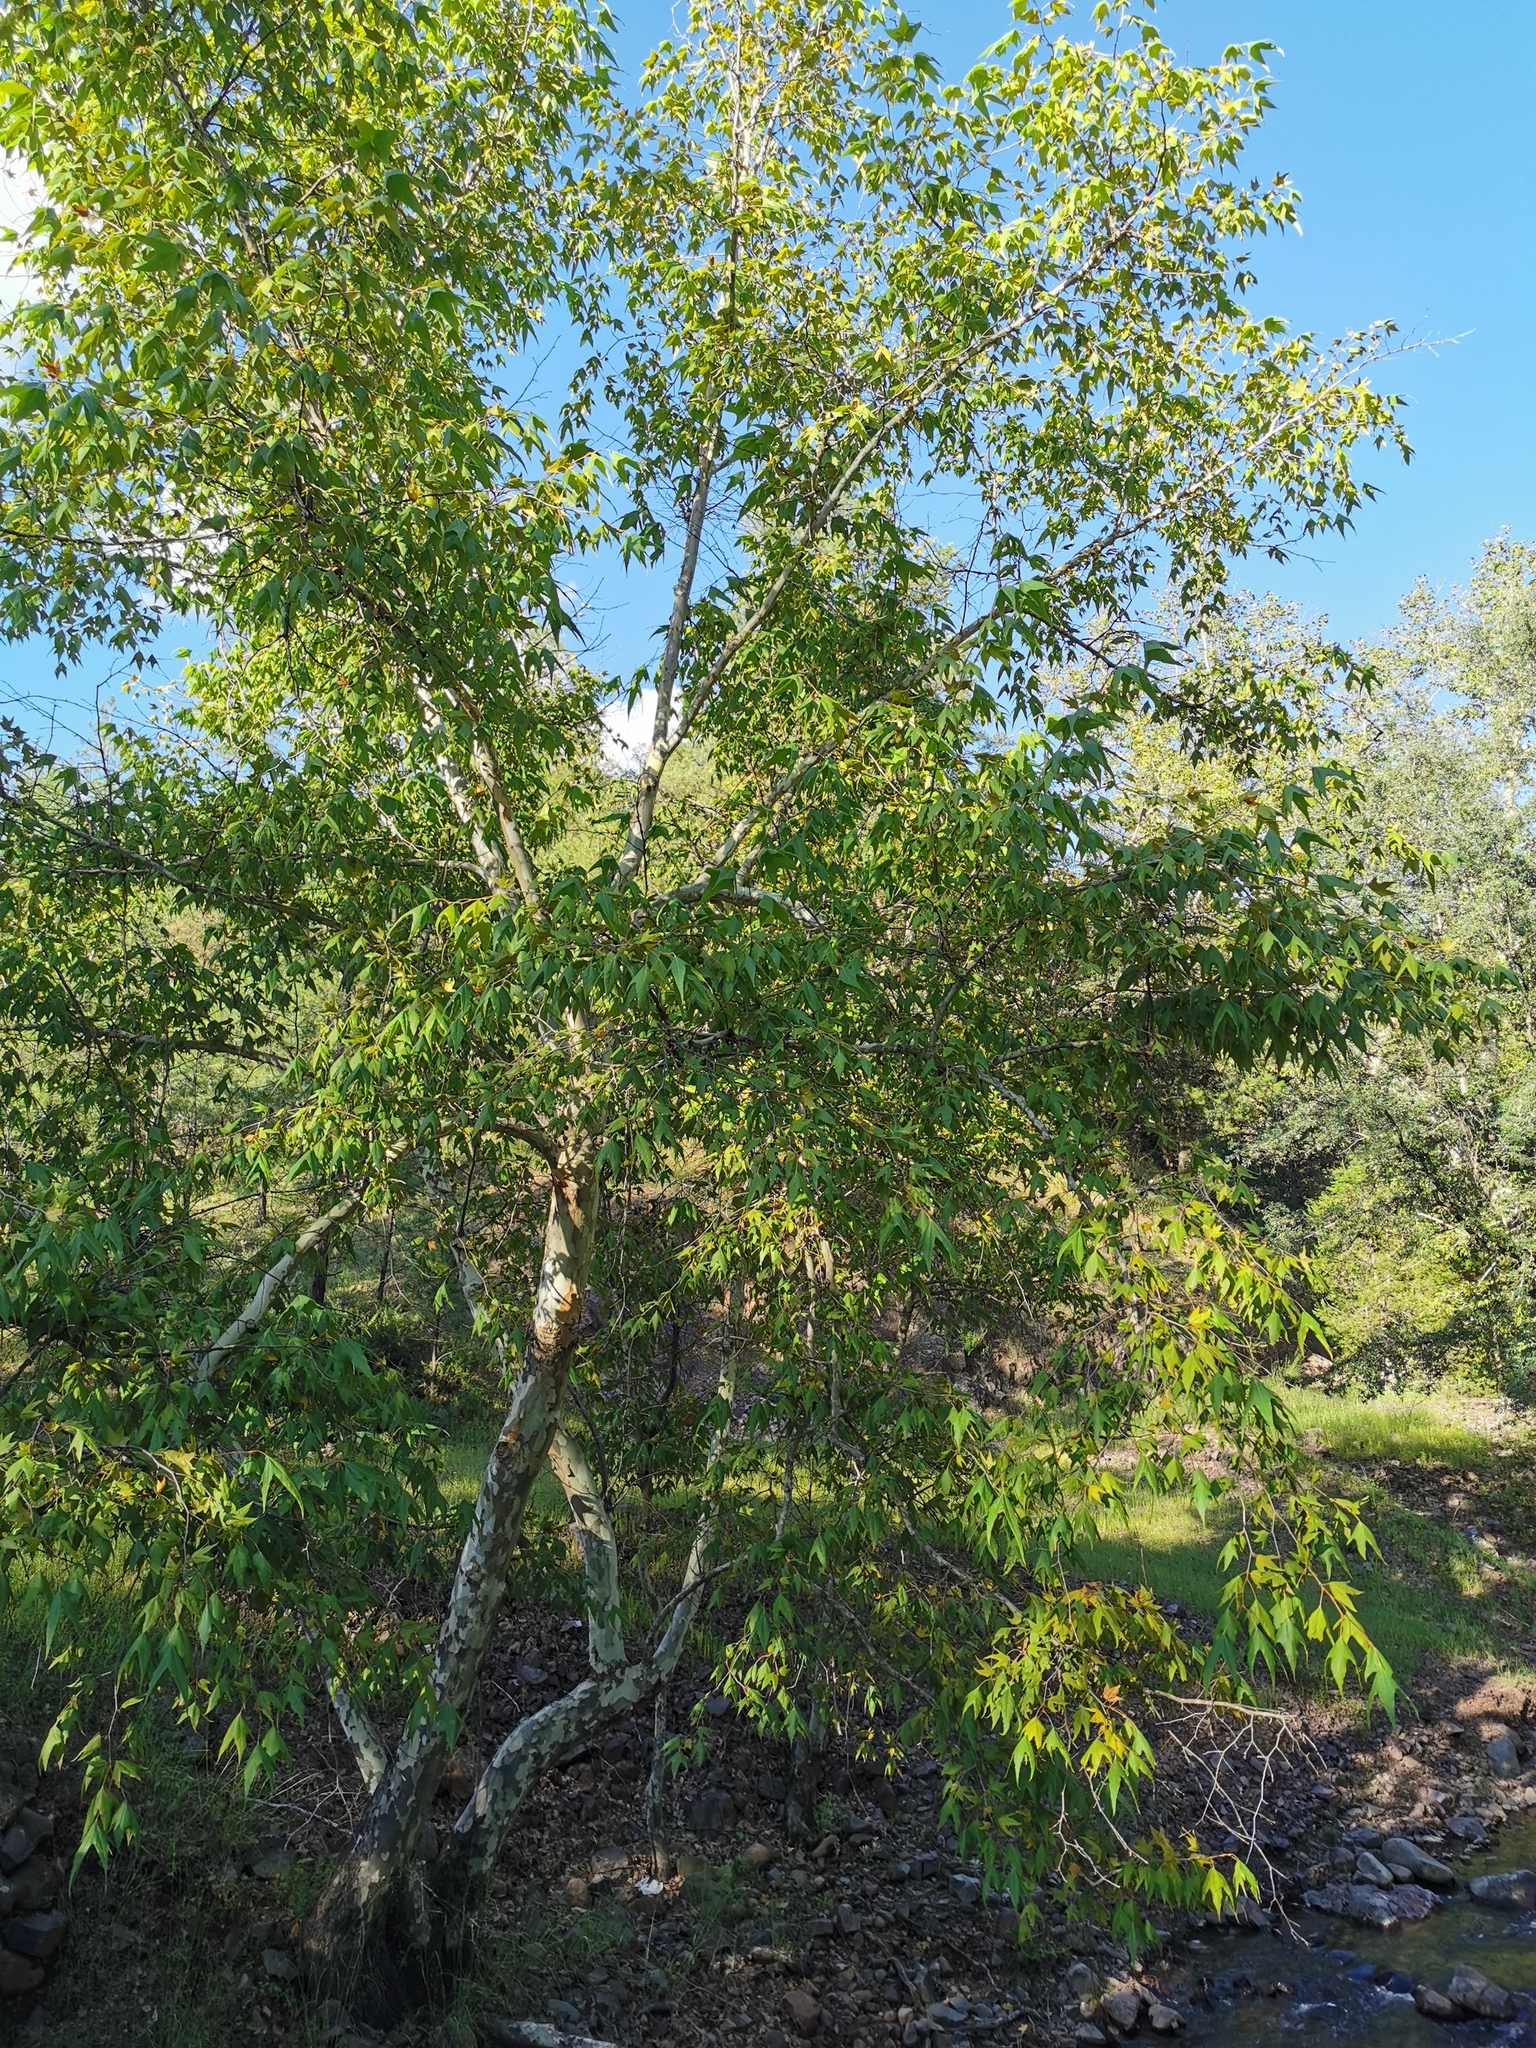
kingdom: Plantae
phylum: Tracheophyta
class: Magnoliopsida
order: Proteales
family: Platanaceae
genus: Platanus
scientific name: Platanus wrightii
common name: Arizona sycamore
